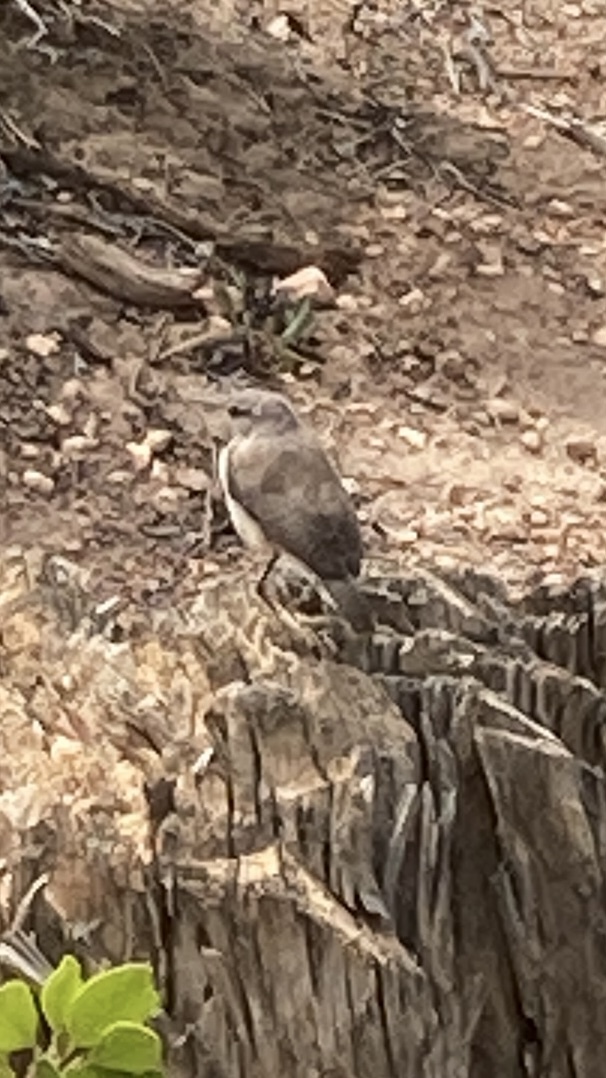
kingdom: Animalia
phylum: Chordata
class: Aves
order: Passeriformes
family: Troglodytidae
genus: Salpinctes
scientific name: Salpinctes obsoletus
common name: Rock wren
